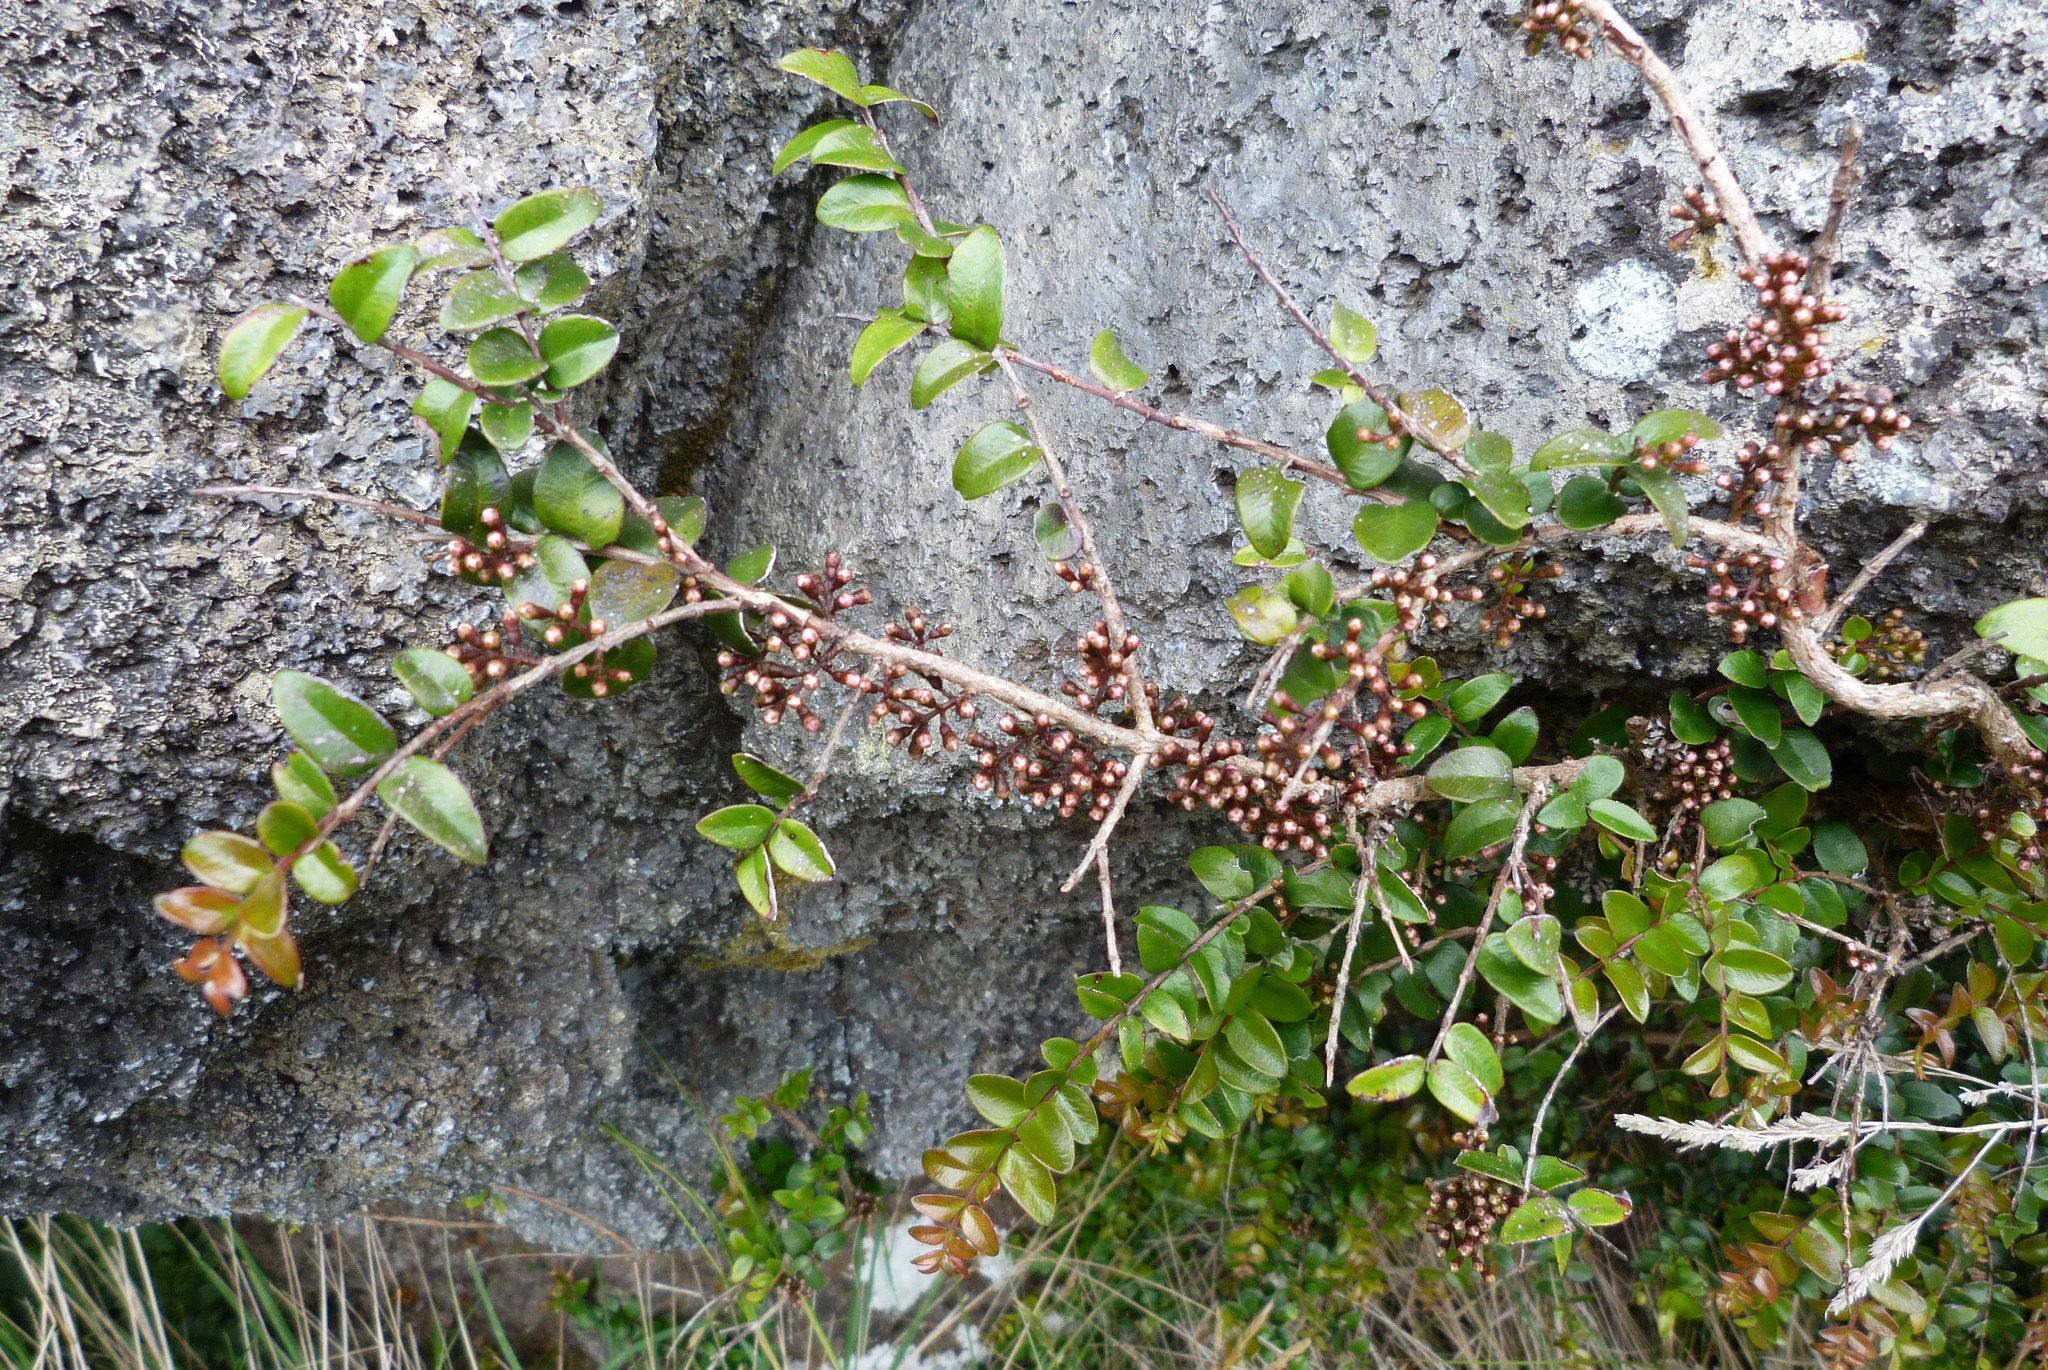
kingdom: Plantae
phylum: Tracheophyta
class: Magnoliopsida
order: Myrtales
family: Myrtaceae
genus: Metrosideros
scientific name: Metrosideros diffusa
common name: Small ratavine
